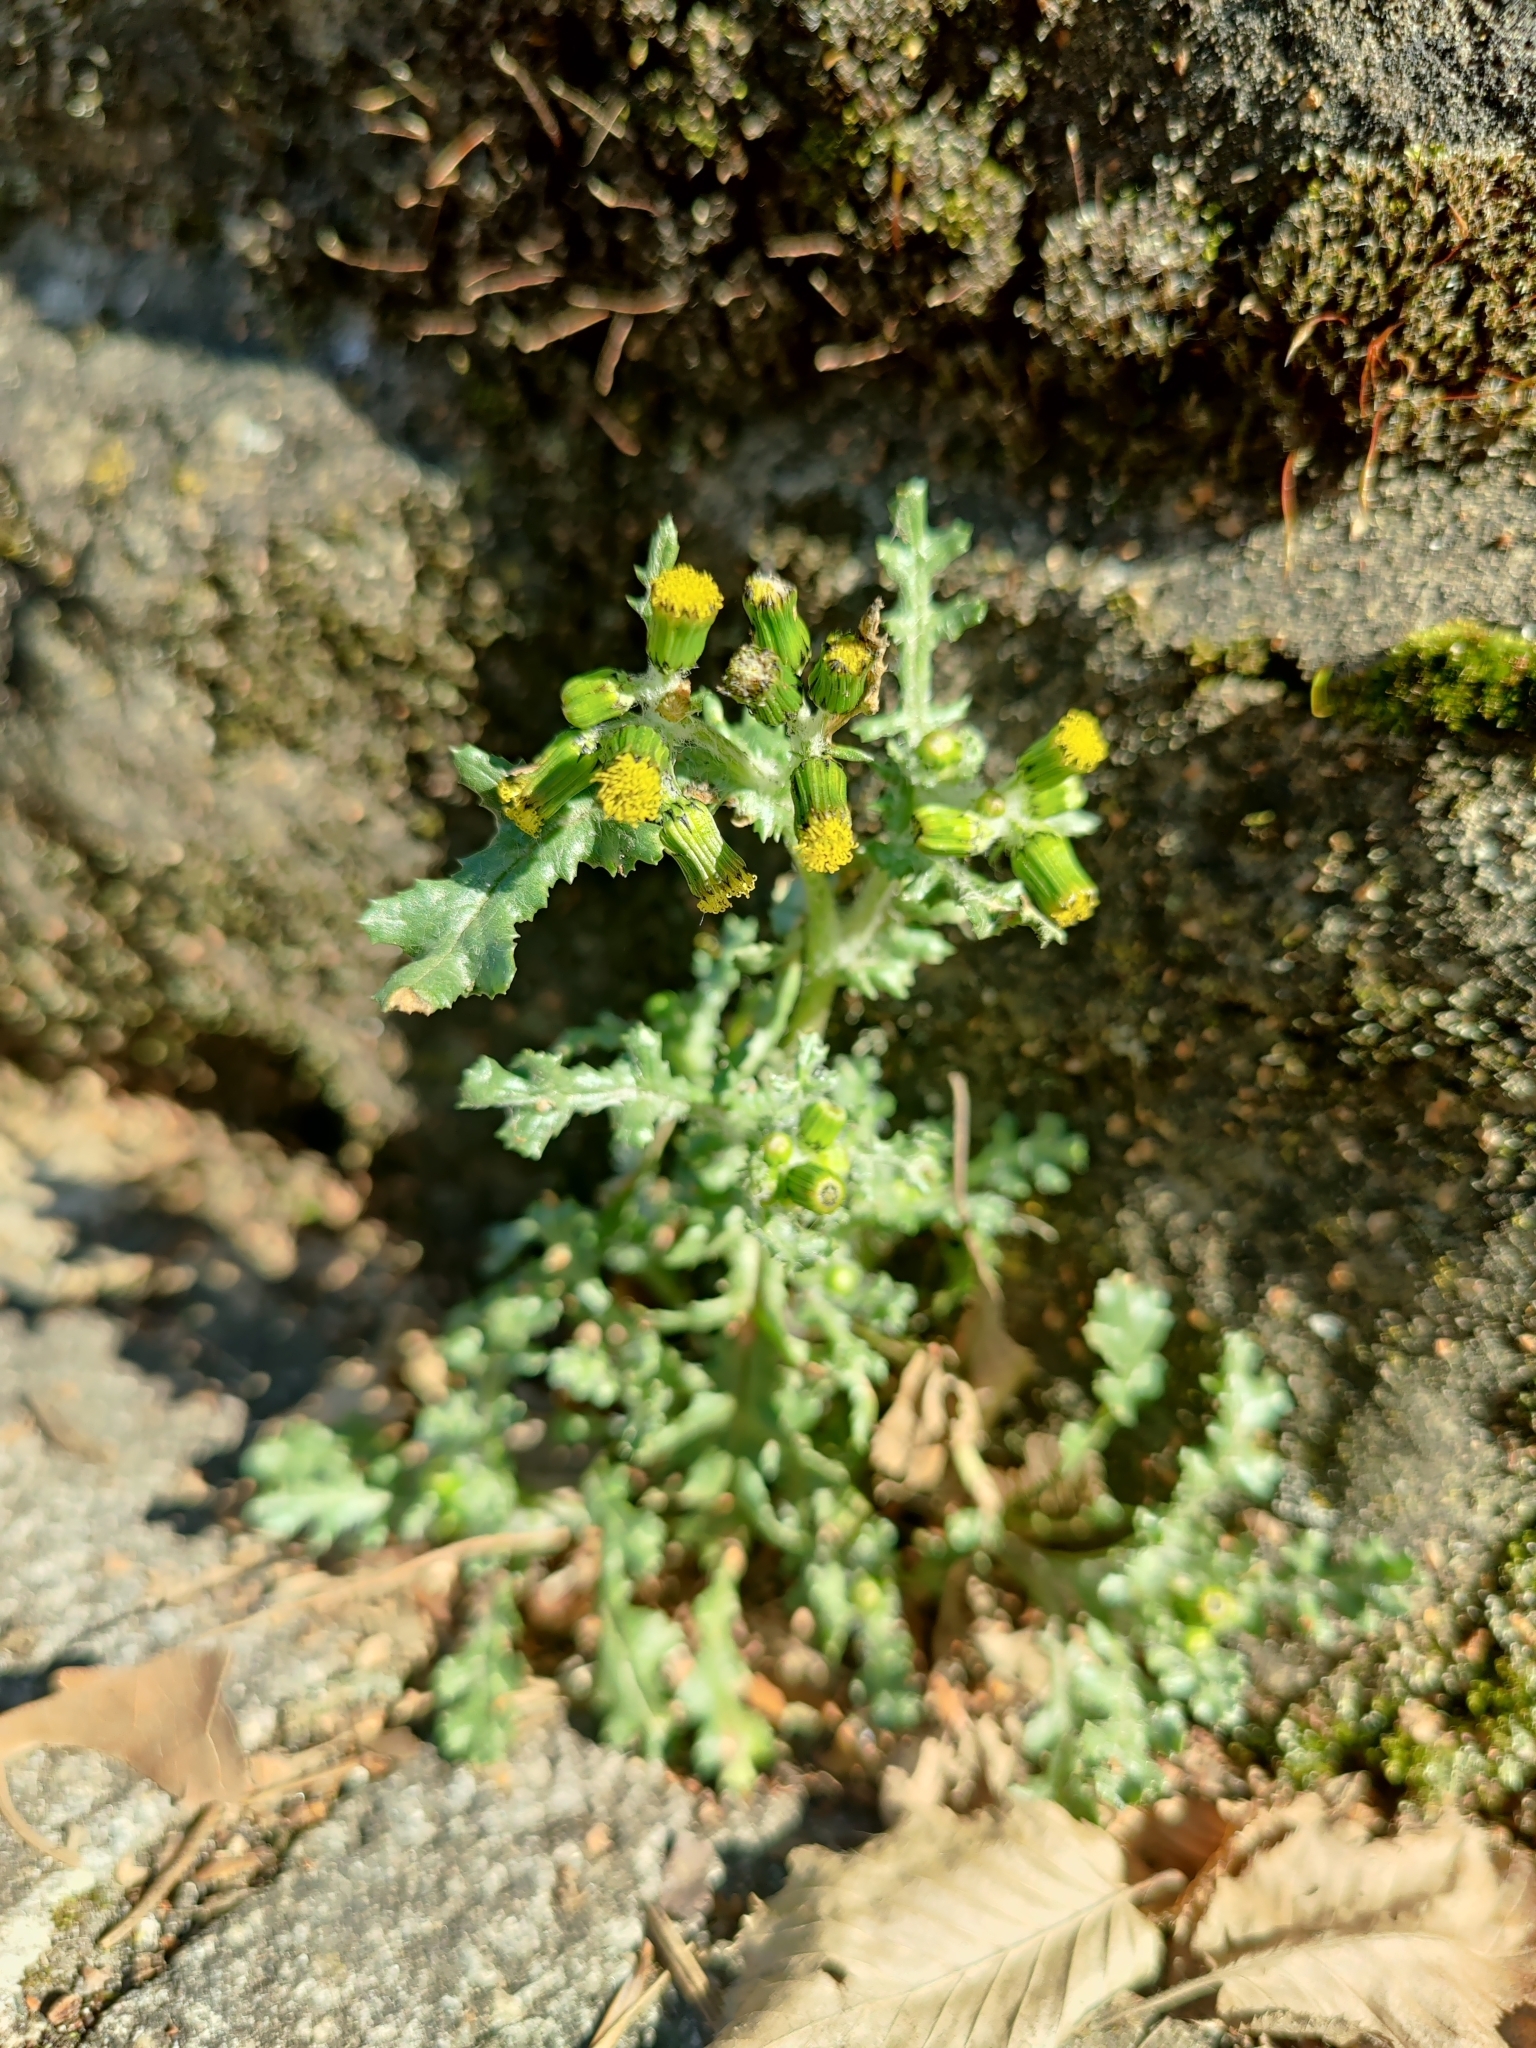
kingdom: Plantae
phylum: Tracheophyta
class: Magnoliopsida
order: Asterales
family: Asteraceae
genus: Senecio
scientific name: Senecio vulgaris
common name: Old-man-in-the-spring
